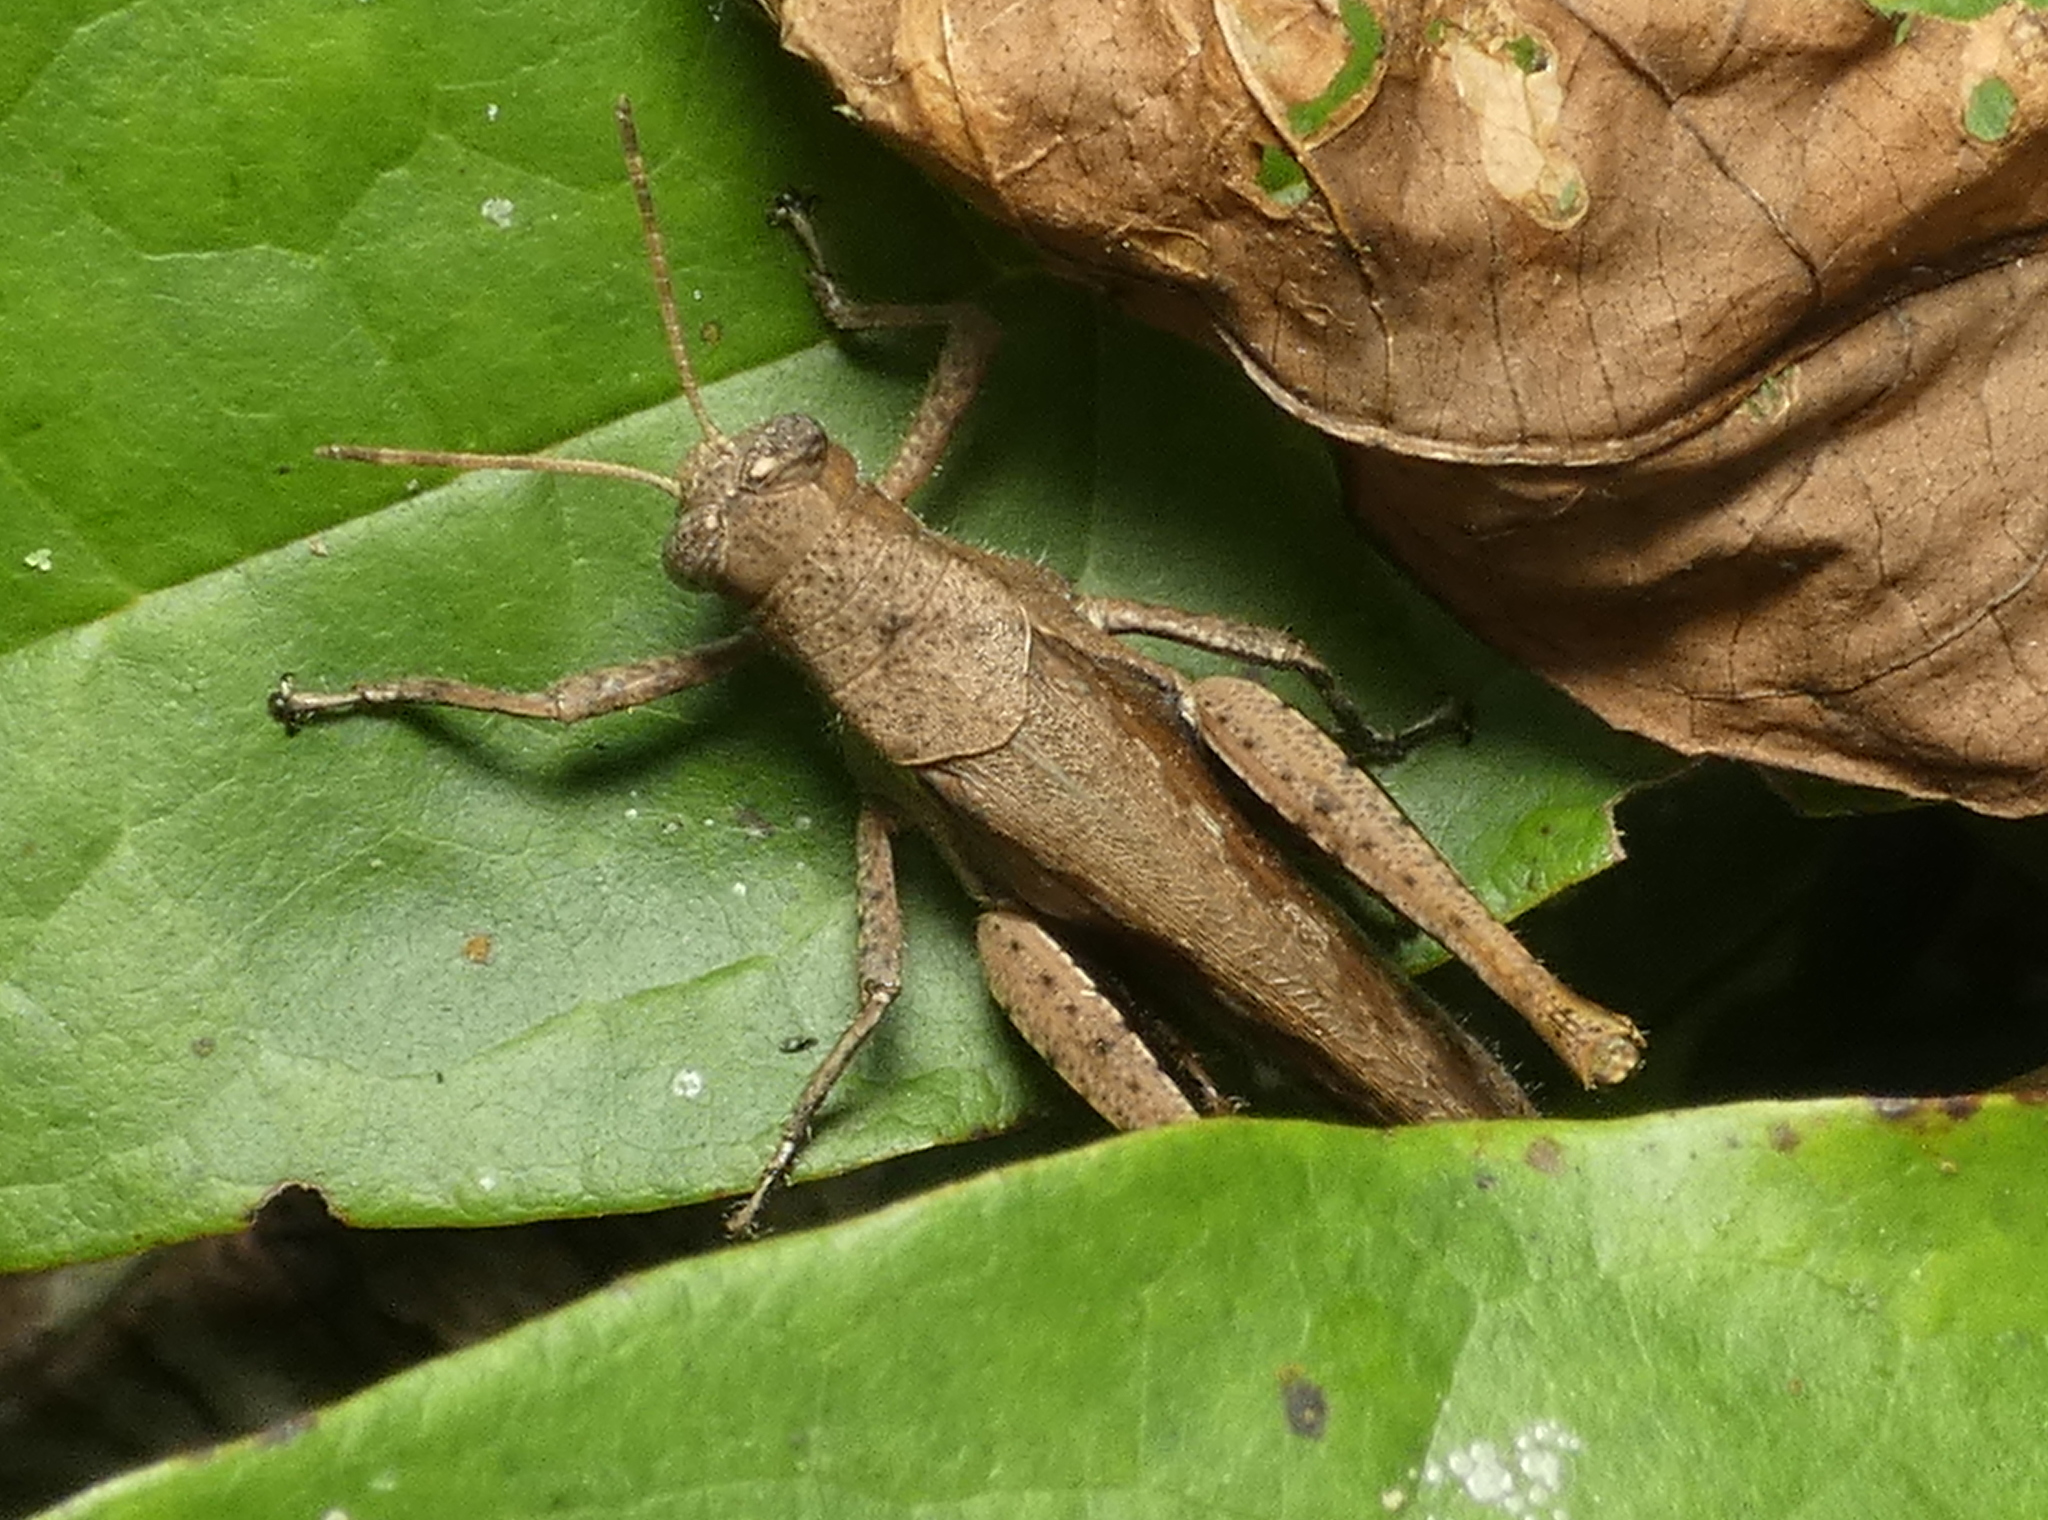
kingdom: Animalia
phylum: Arthropoda
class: Insecta
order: Orthoptera
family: Acrididae
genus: Abracris
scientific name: Abracris flavolineata
